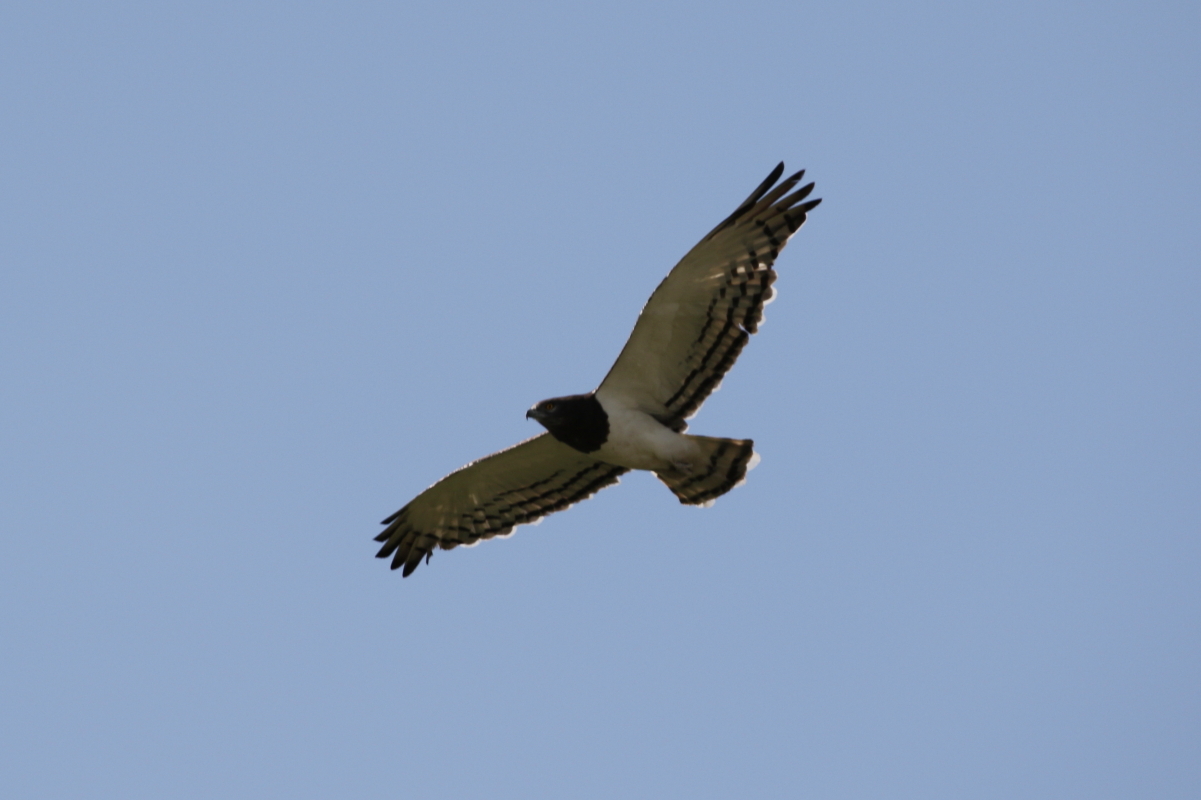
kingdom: Animalia
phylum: Chordata
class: Aves
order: Accipitriformes
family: Accipitridae
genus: Circaetus
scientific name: Circaetus pectoralis
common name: Black-chested snake eagle
